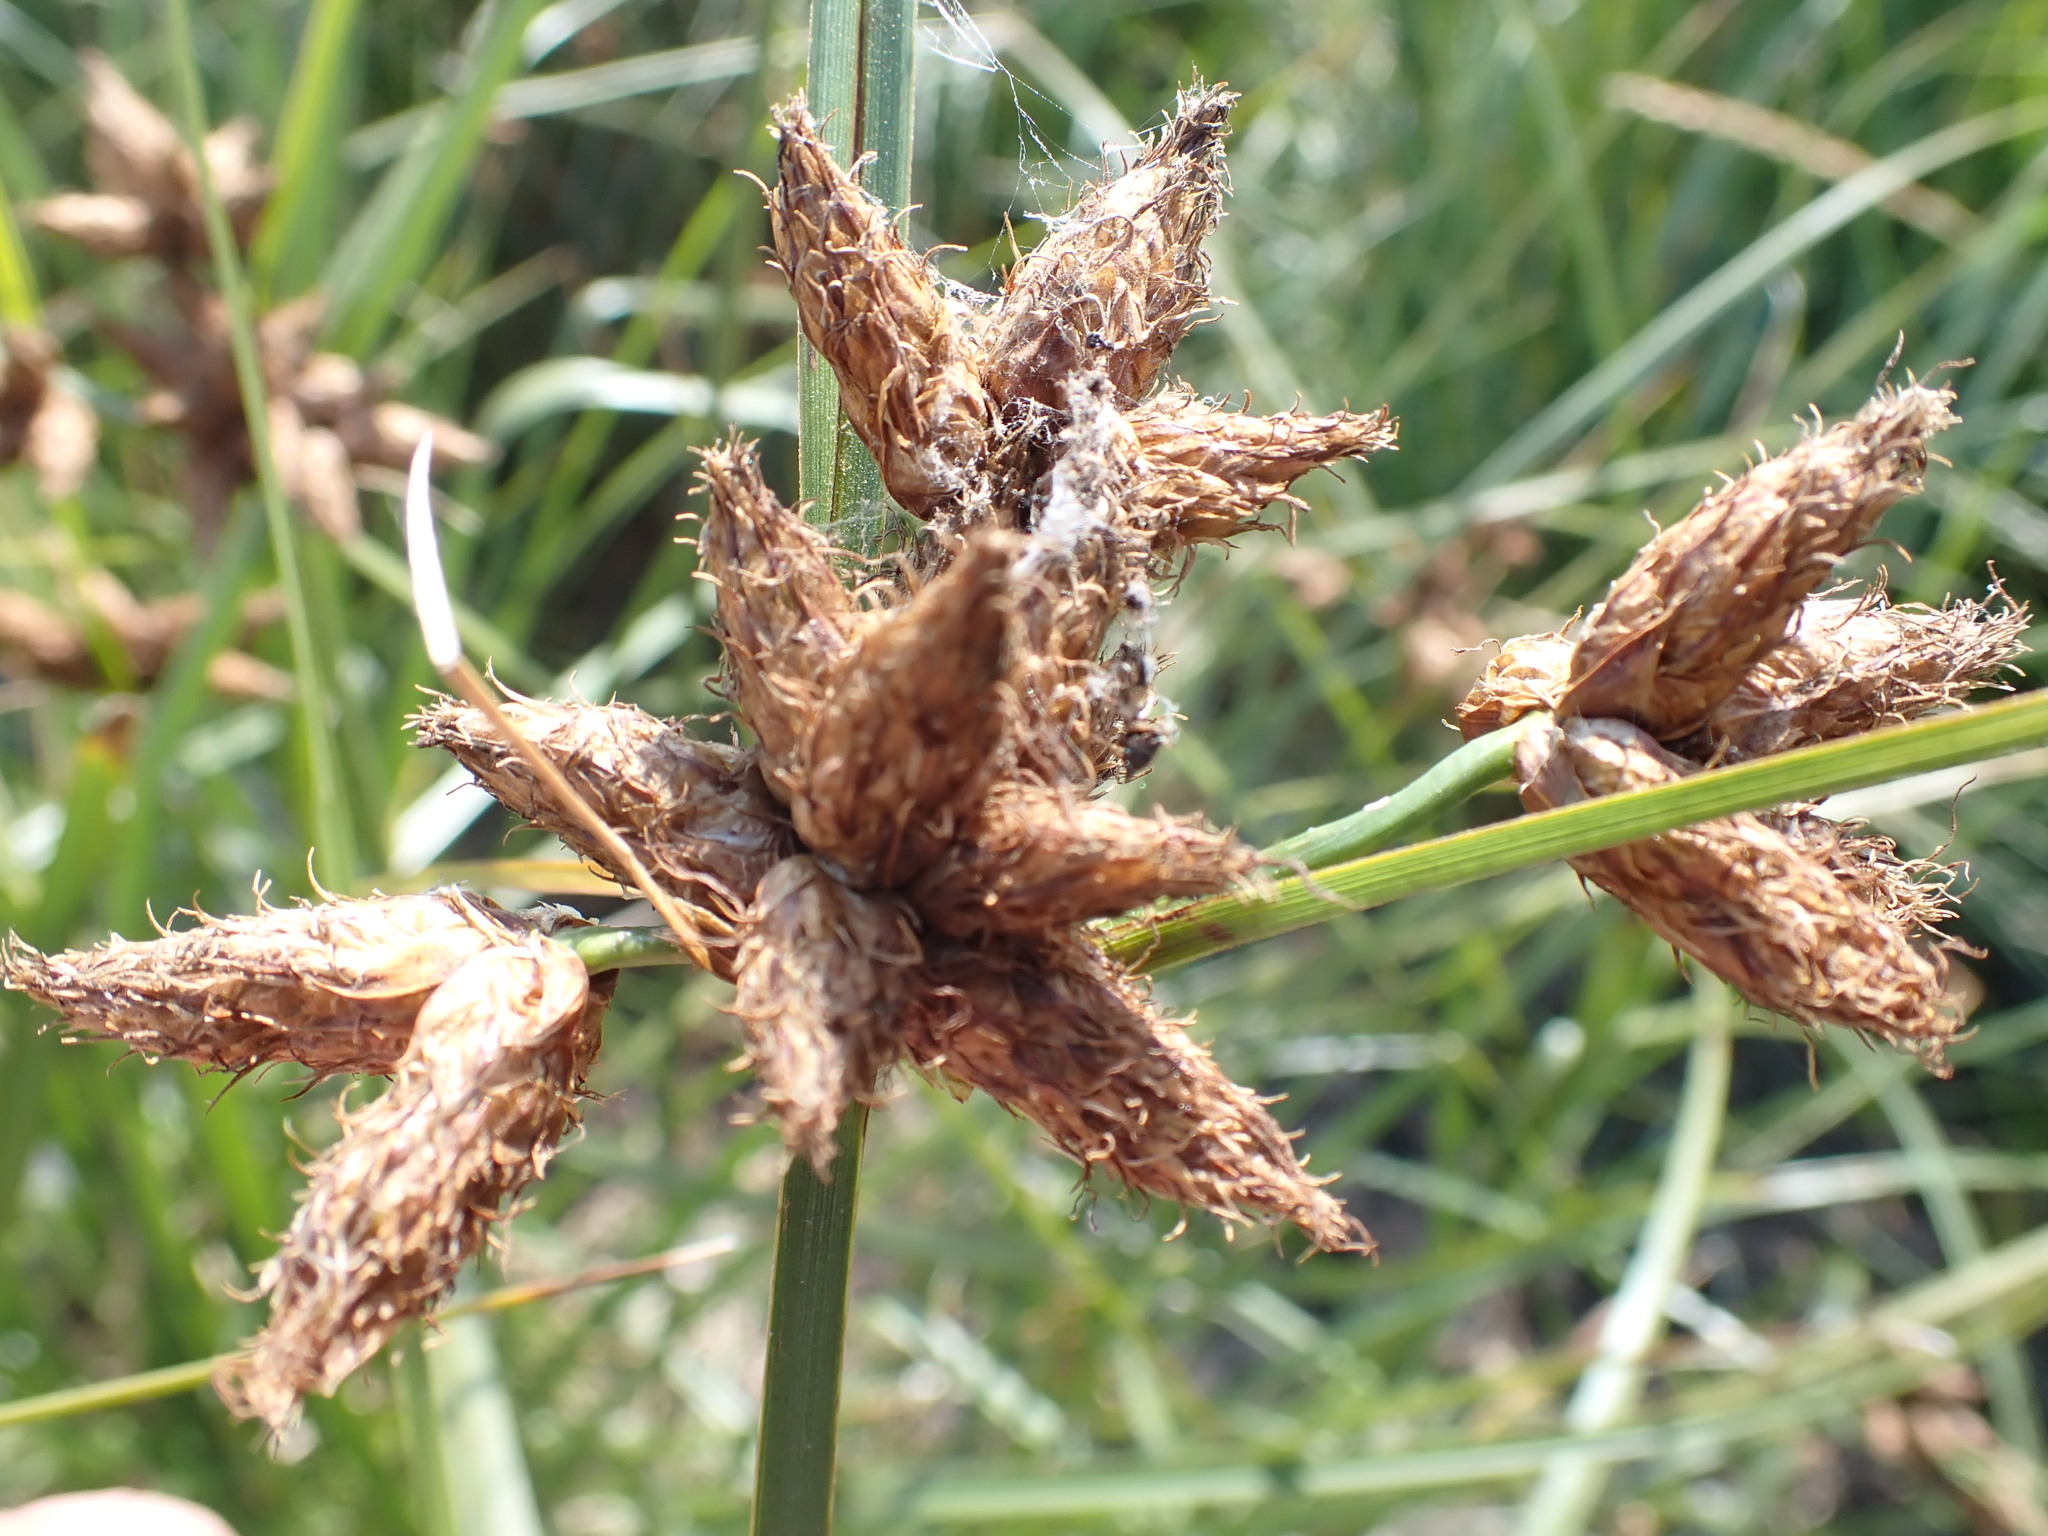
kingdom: Plantae
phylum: Tracheophyta
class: Liliopsida
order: Poales
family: Cyperaceae
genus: Bolboschoenus
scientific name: Bolboschoenus maritimus
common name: Sea club-rush
